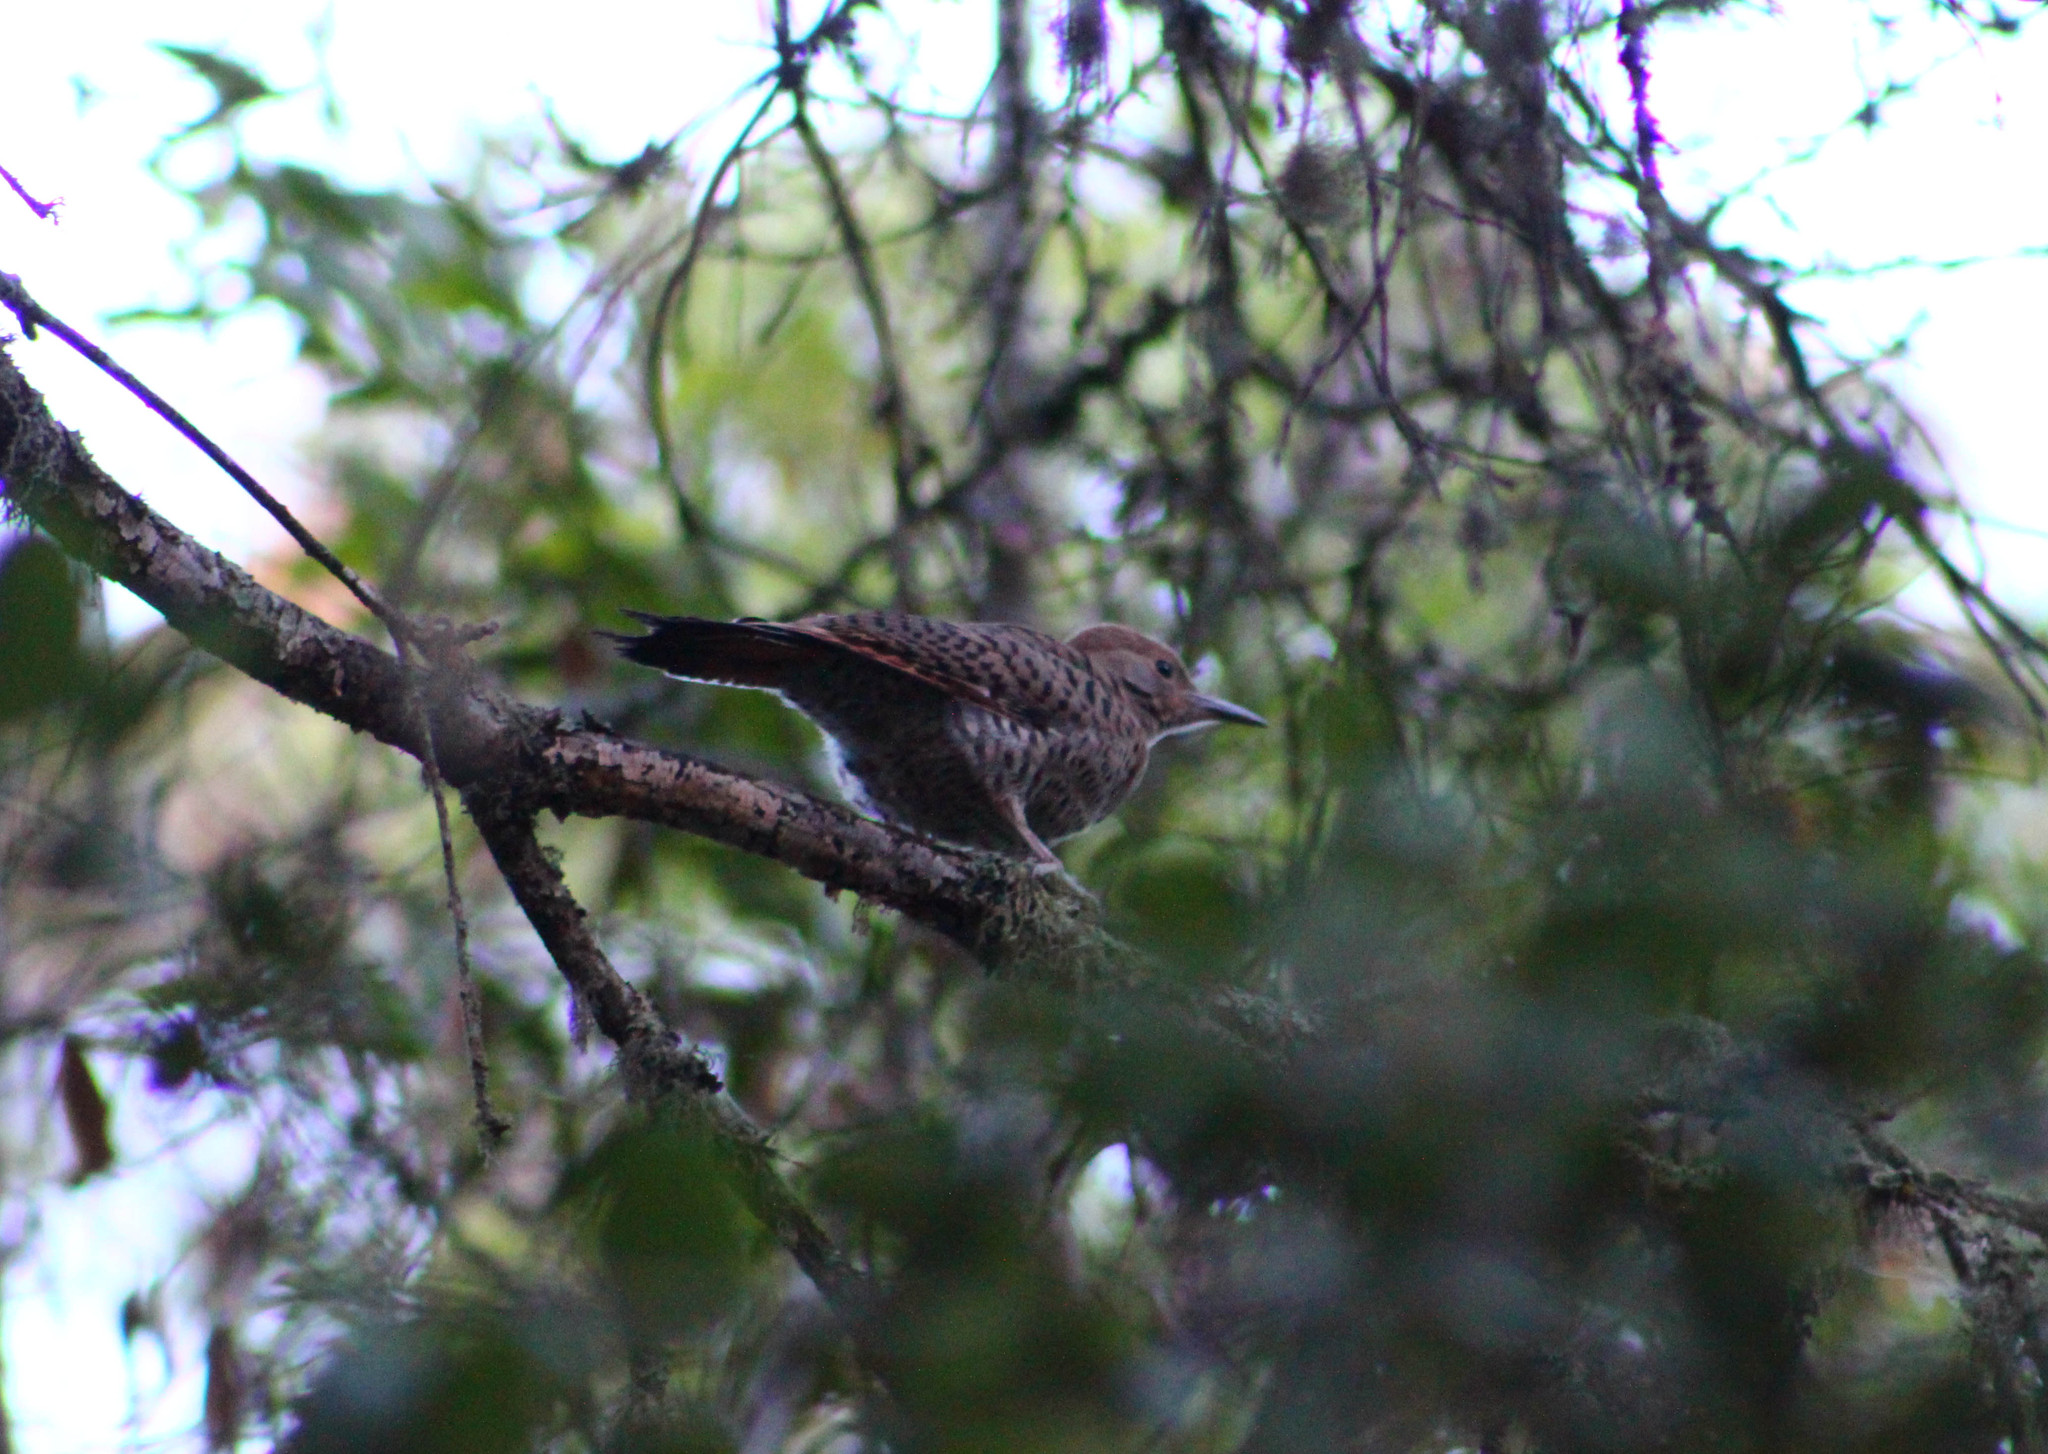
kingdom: Animalia
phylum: Chordata
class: Aves
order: Piciformes
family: Picidae
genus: Colaptes
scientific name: Colaptes auratus
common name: Northern flicker
